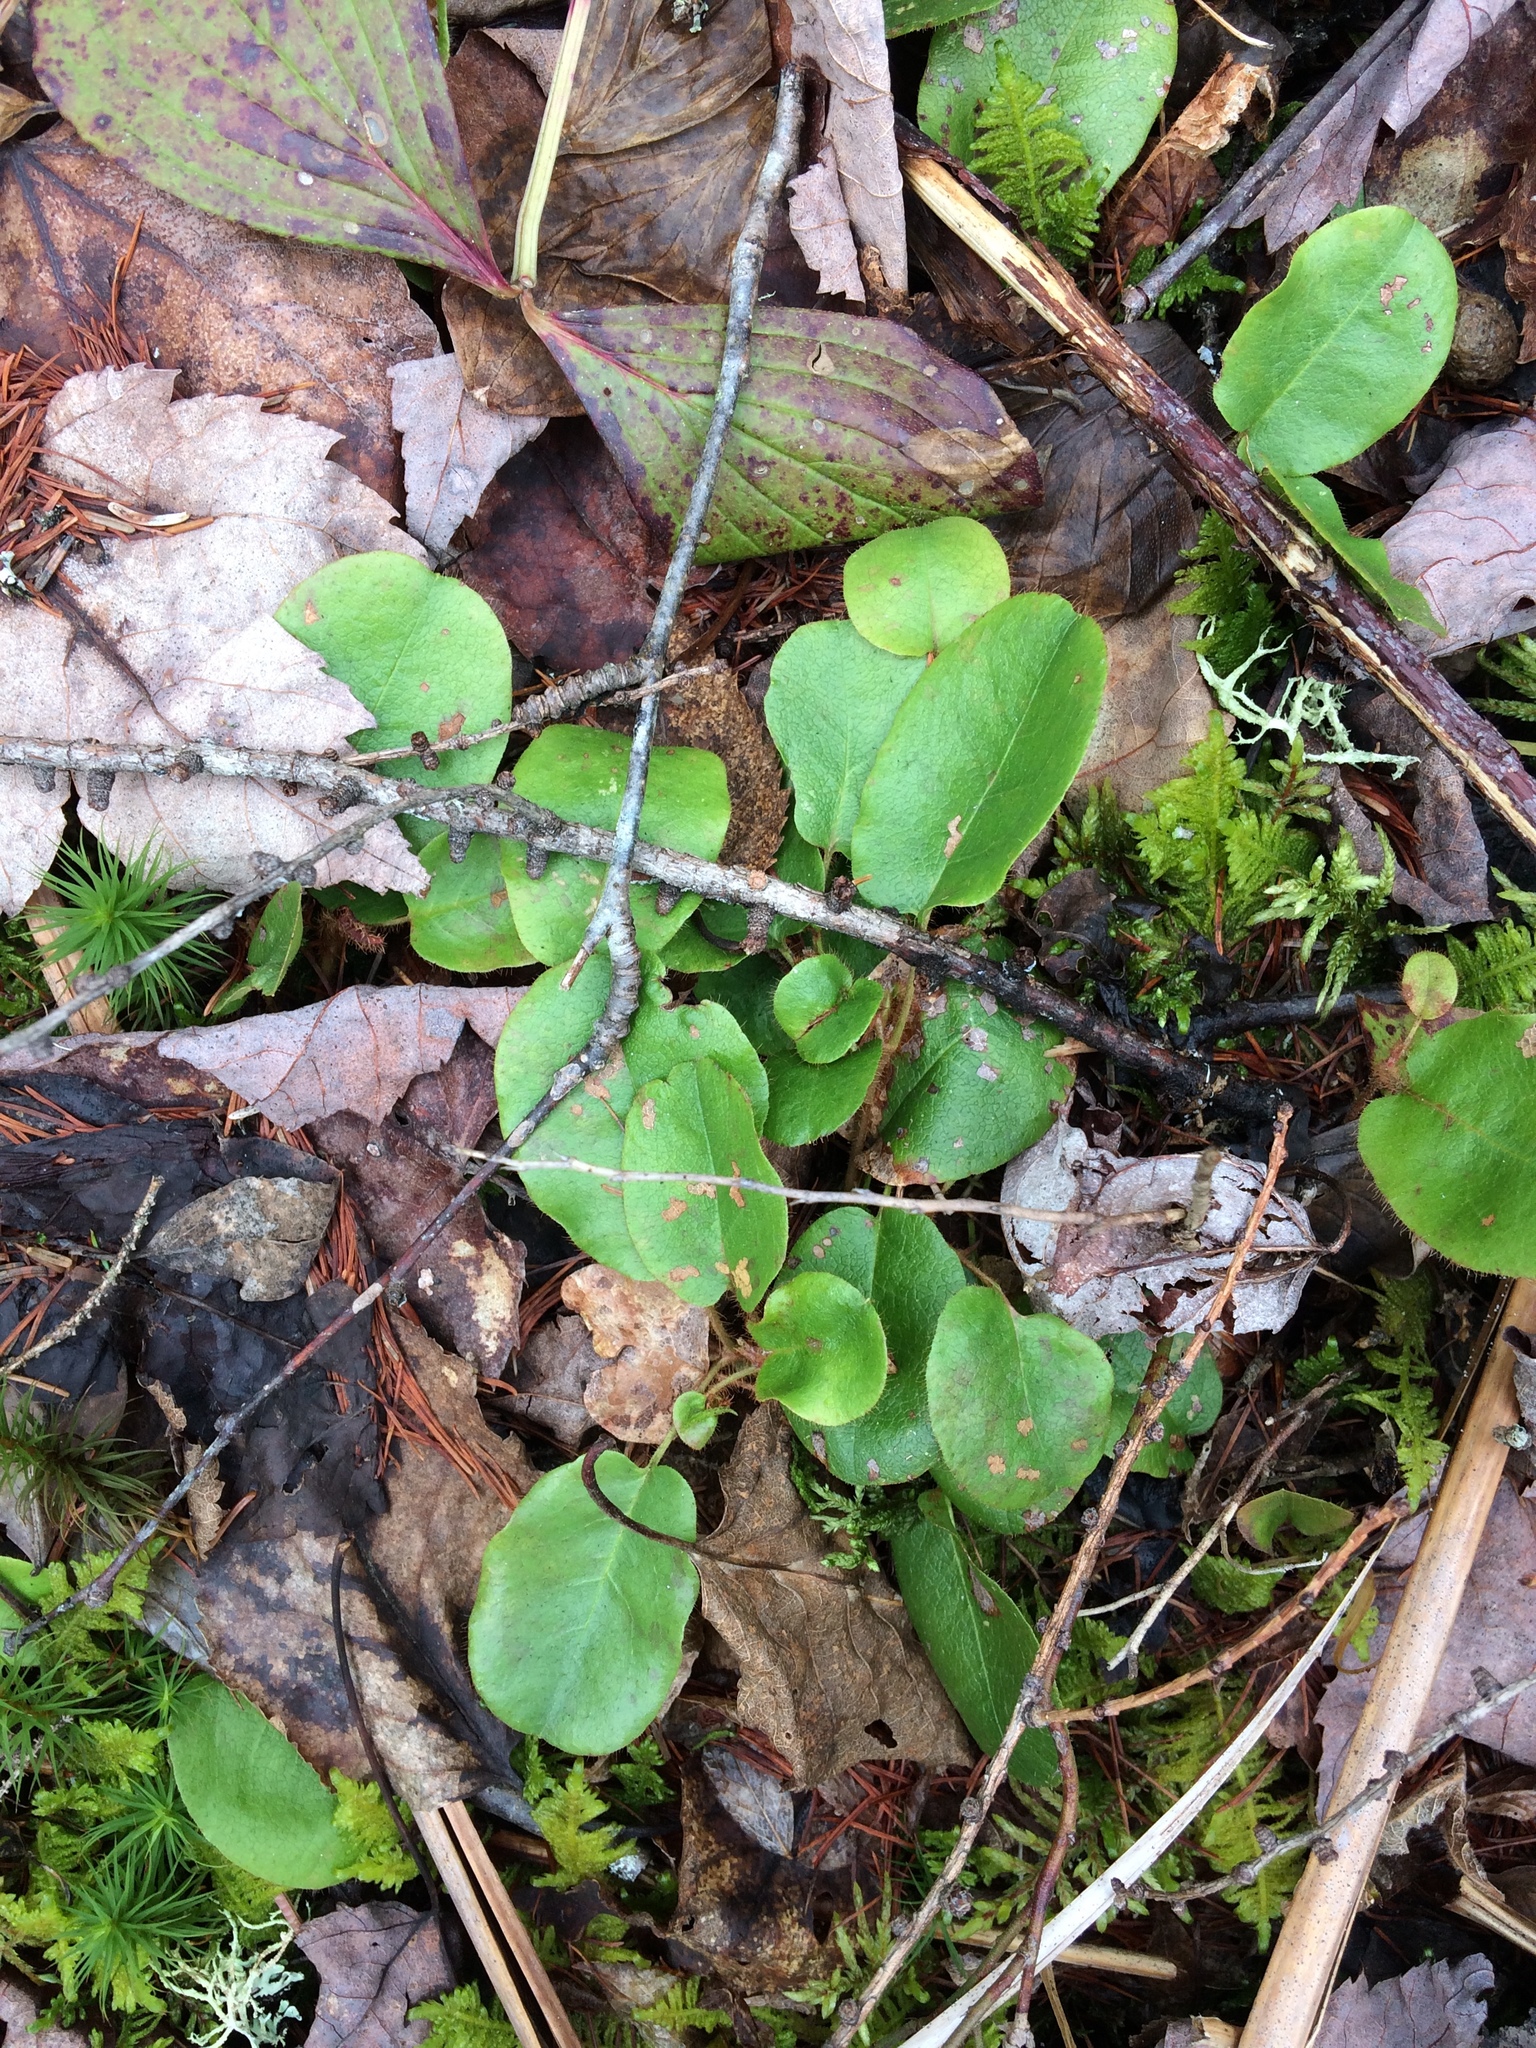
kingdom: Plantae
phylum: Tracheophyta
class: Magnoliopsida
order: Ericales
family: Ericaceae
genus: Epigaea
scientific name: Epigaea repens
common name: Gravelroot
